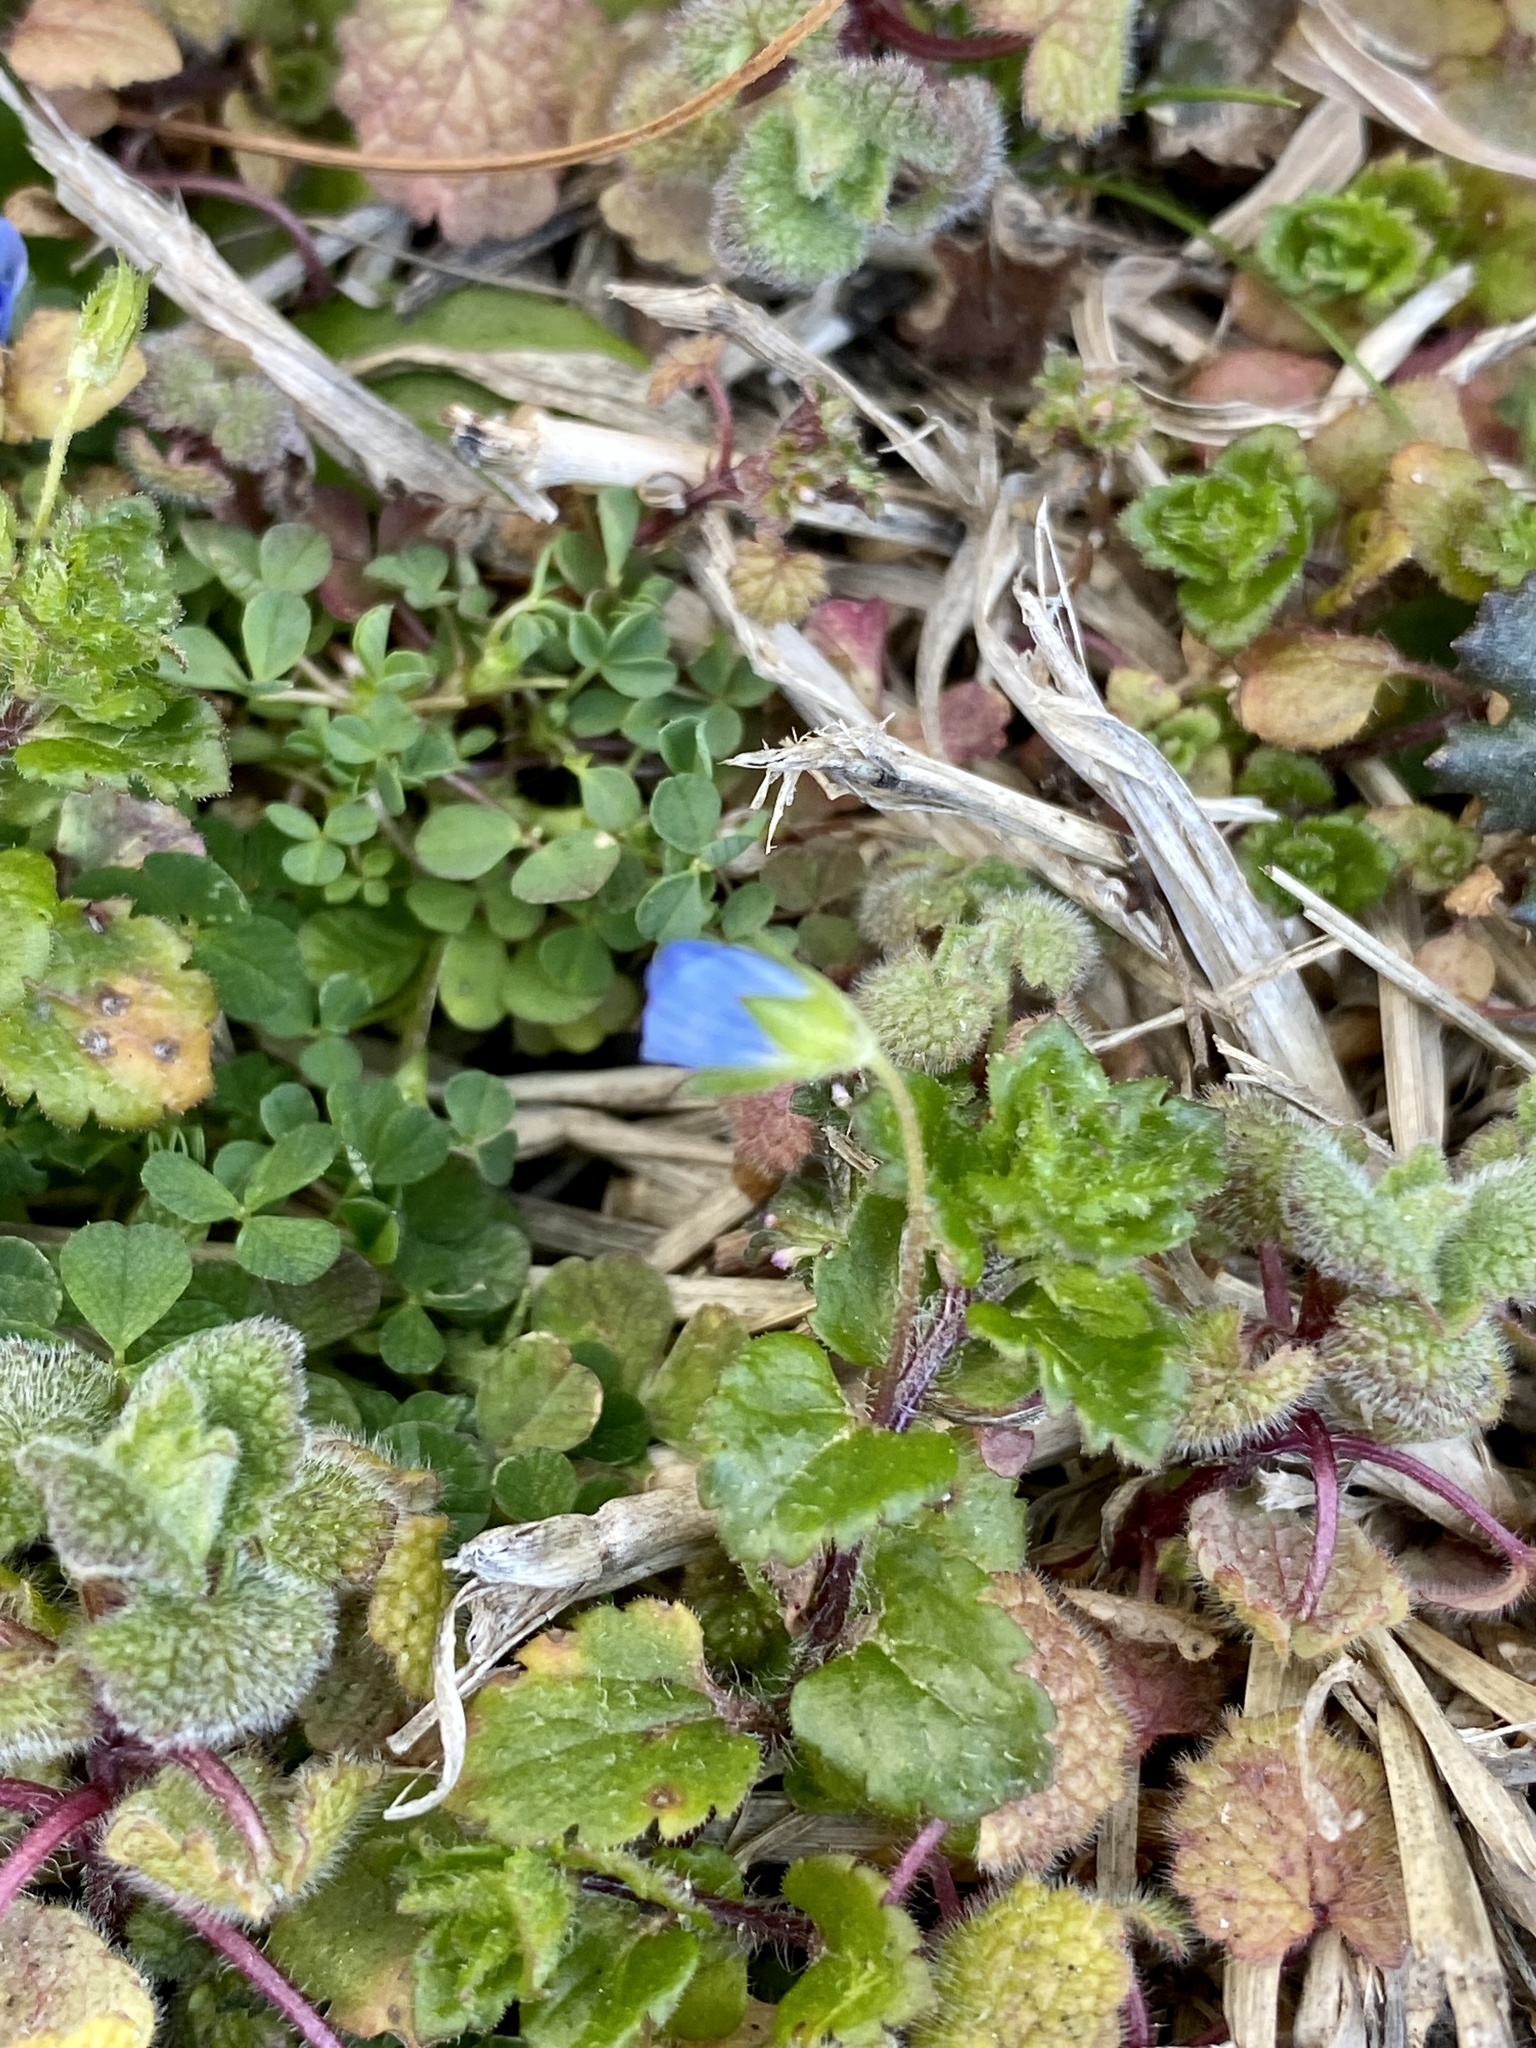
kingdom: Plantae
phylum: Tracheophyta
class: Magnoliopsida
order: Lamiales
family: Plantaginaceae
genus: Veronica
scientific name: Veronica persica
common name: Common field-speedwell
